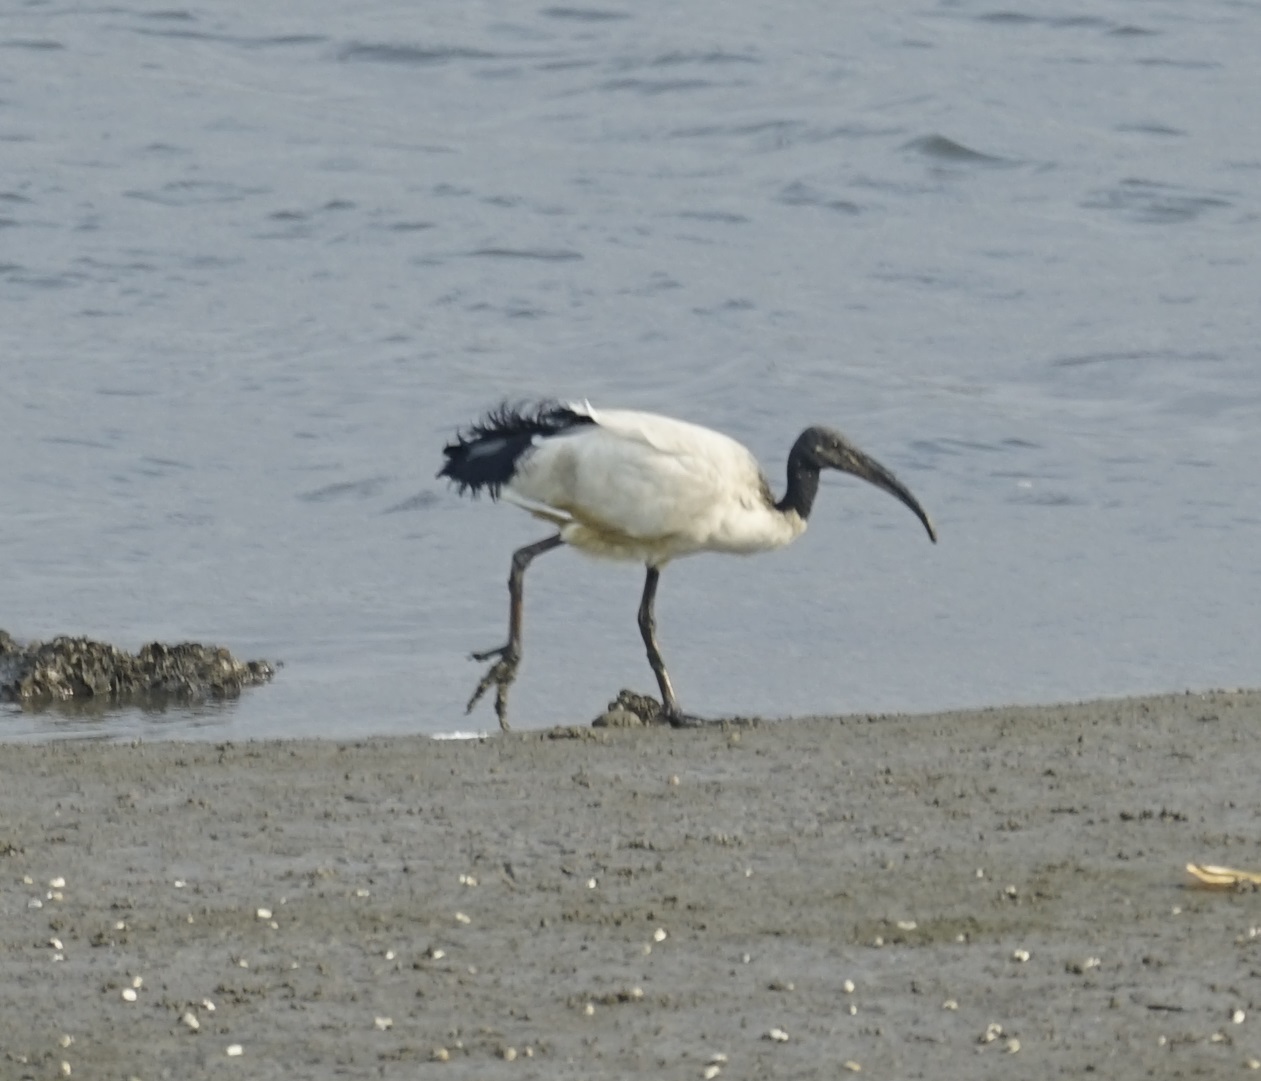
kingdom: Animalia
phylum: Chordata
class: Aves
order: Pelecaniformes
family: Threskiornithidae
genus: Threskiornis
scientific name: Threskiornis aethiopicus
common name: Sacred ibis
